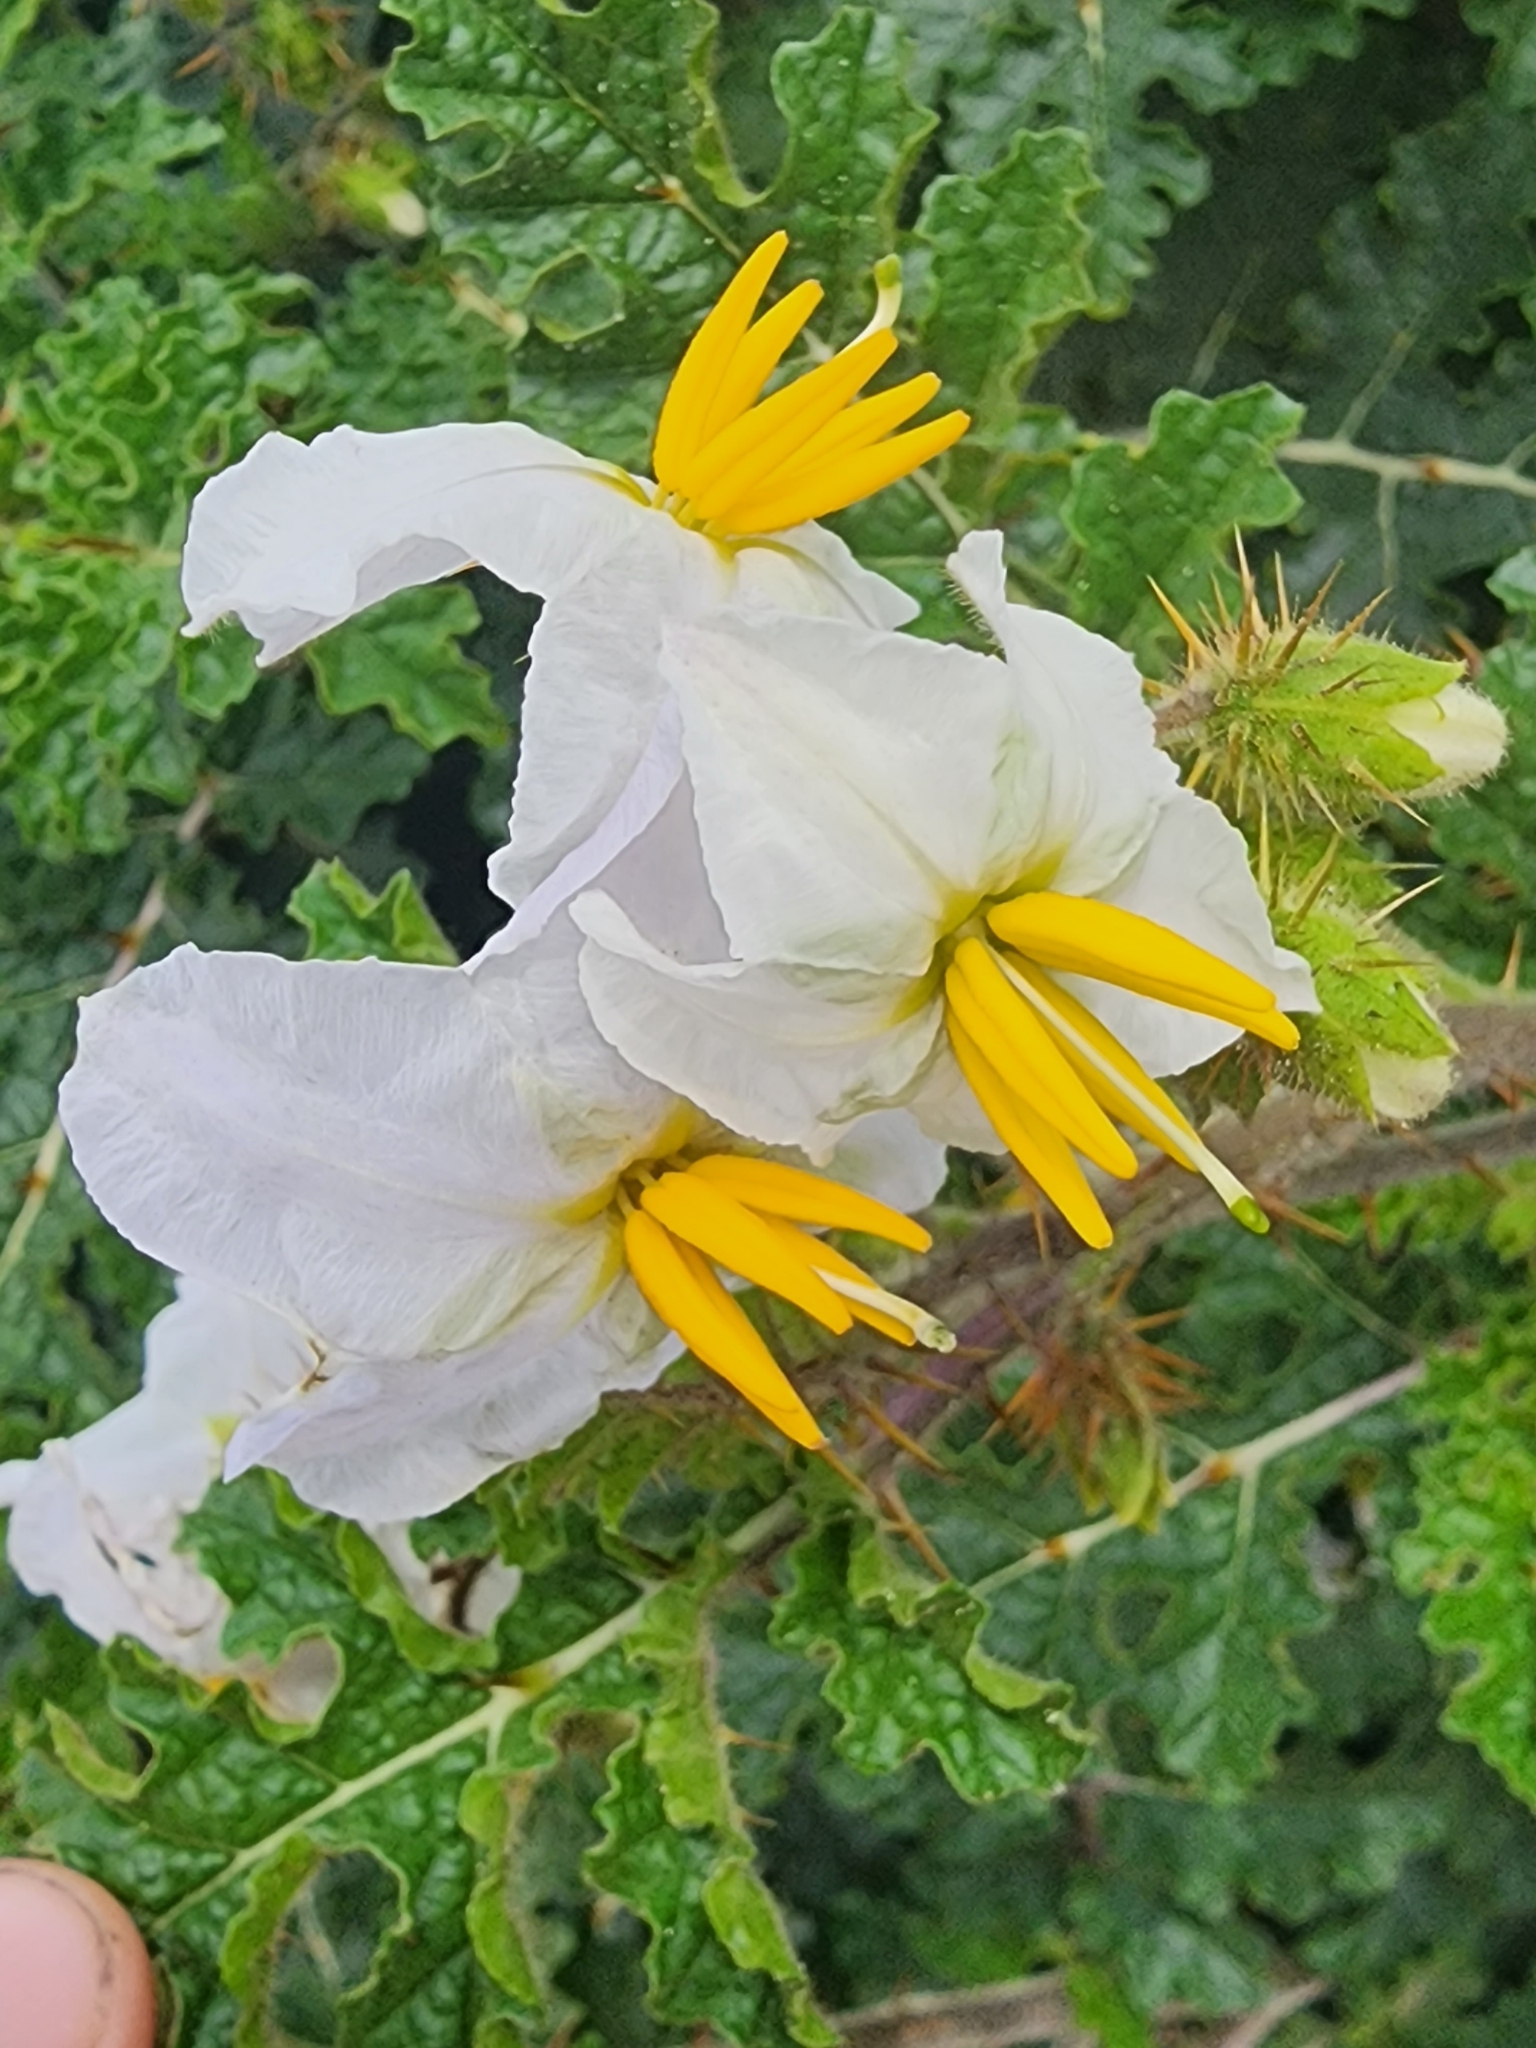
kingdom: Plantae
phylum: Tracheophyta
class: Magnoliopsida
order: Solanales
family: Solanaceae
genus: Solanum
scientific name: Solanum sisymbriifolium
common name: Red buffalo-bur
